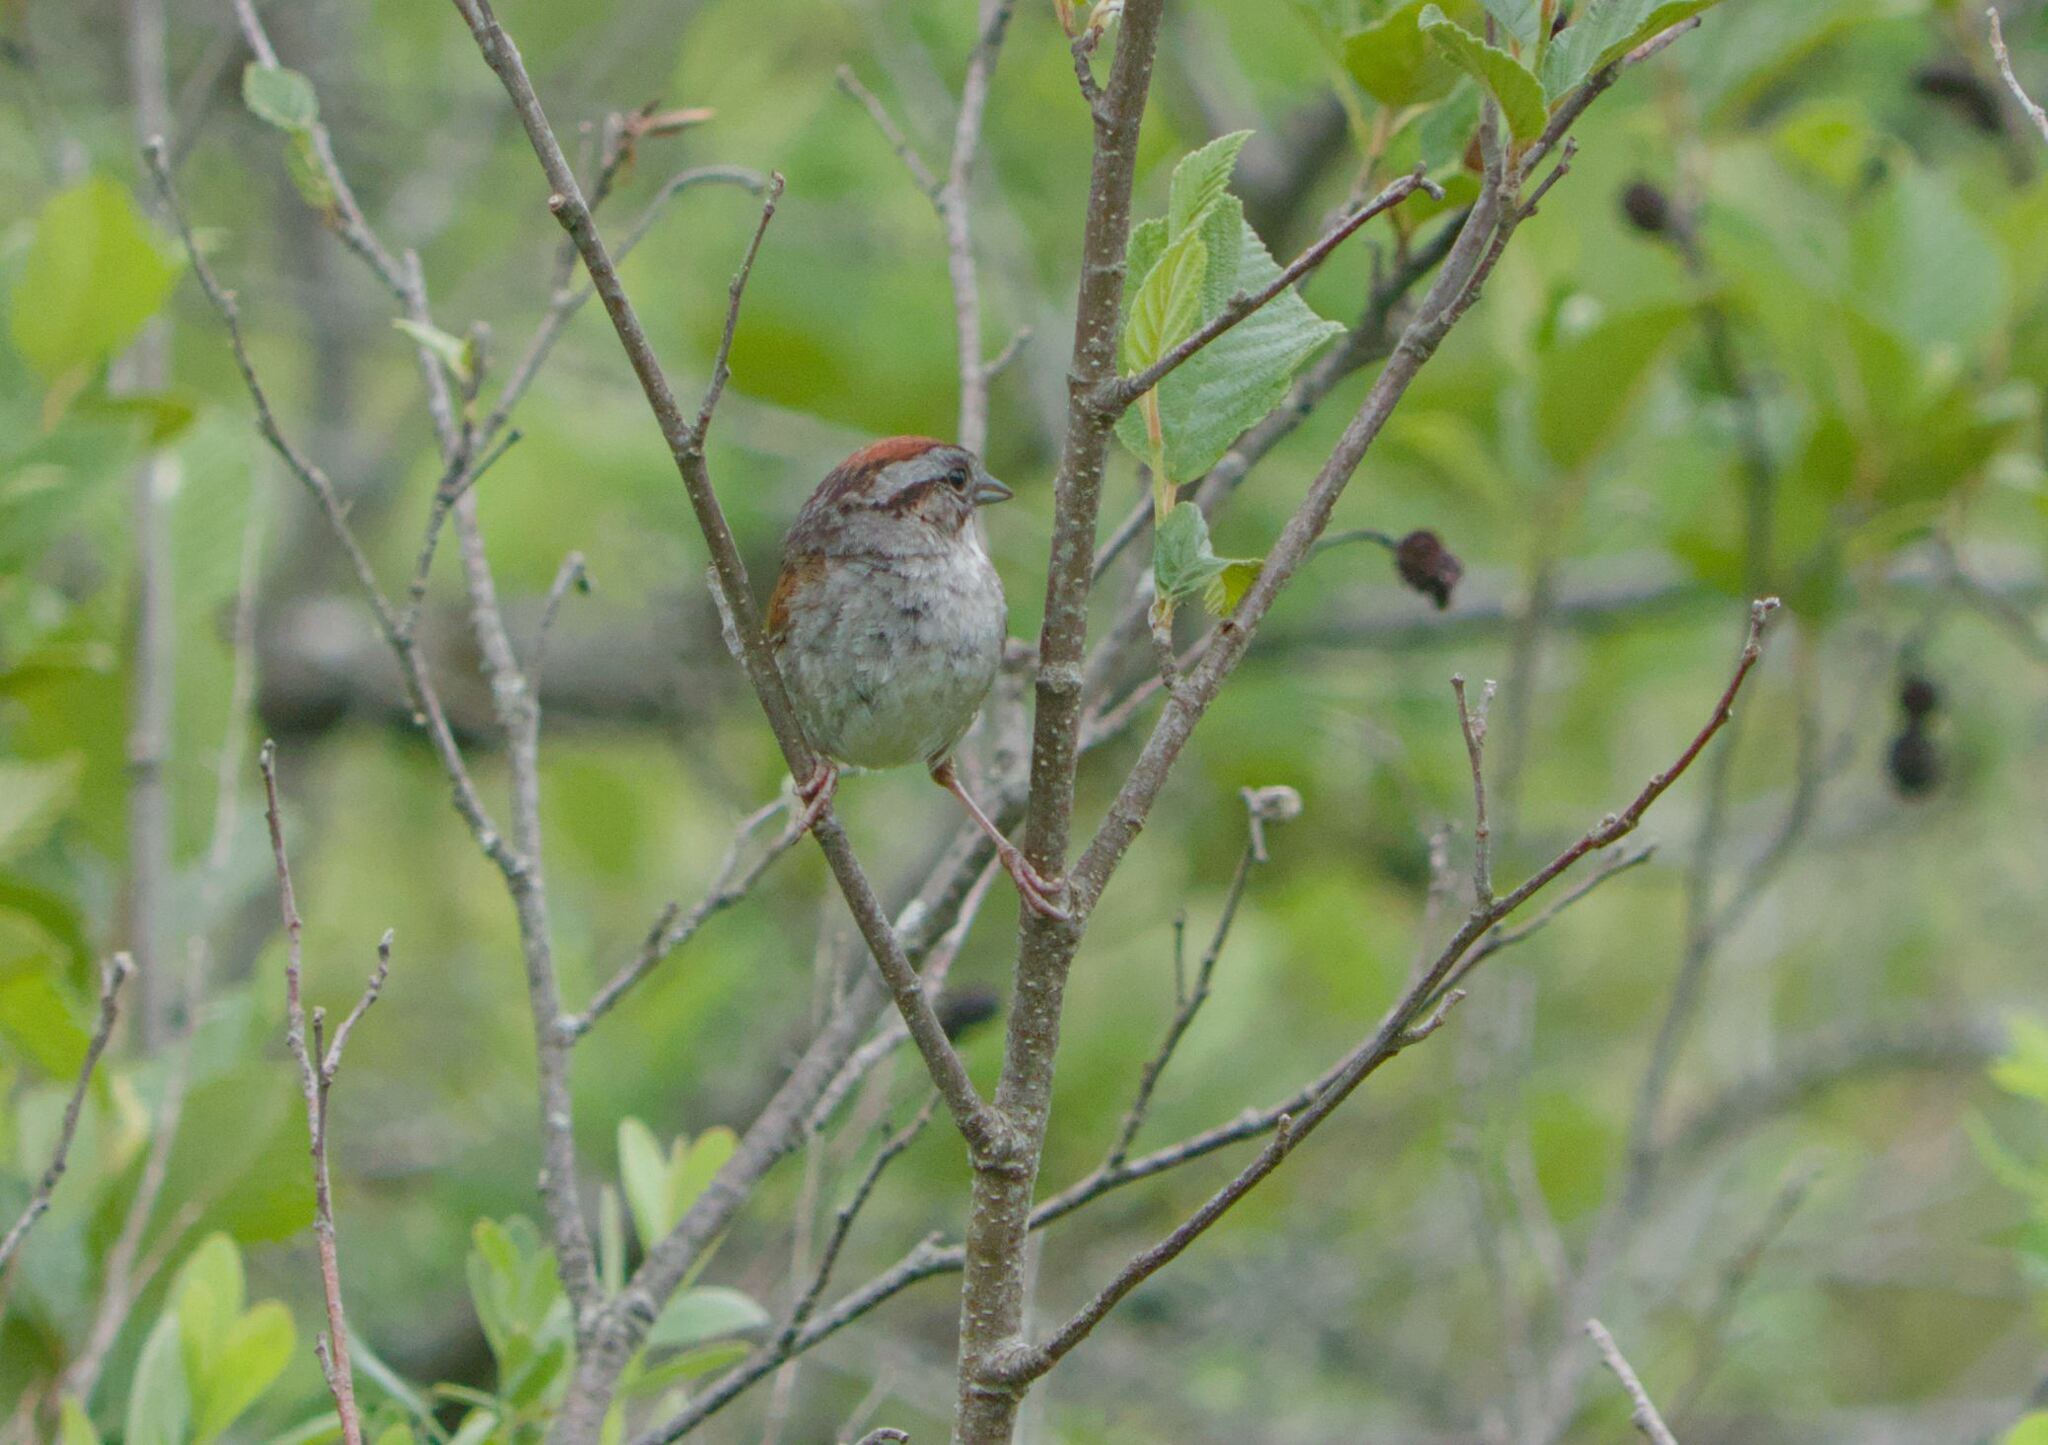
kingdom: Animalia
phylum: Chordata
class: Aves
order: Passeriformes
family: Passerellidae
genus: Melospiza
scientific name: Melospiza georgiana
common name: Swamp sparrow
